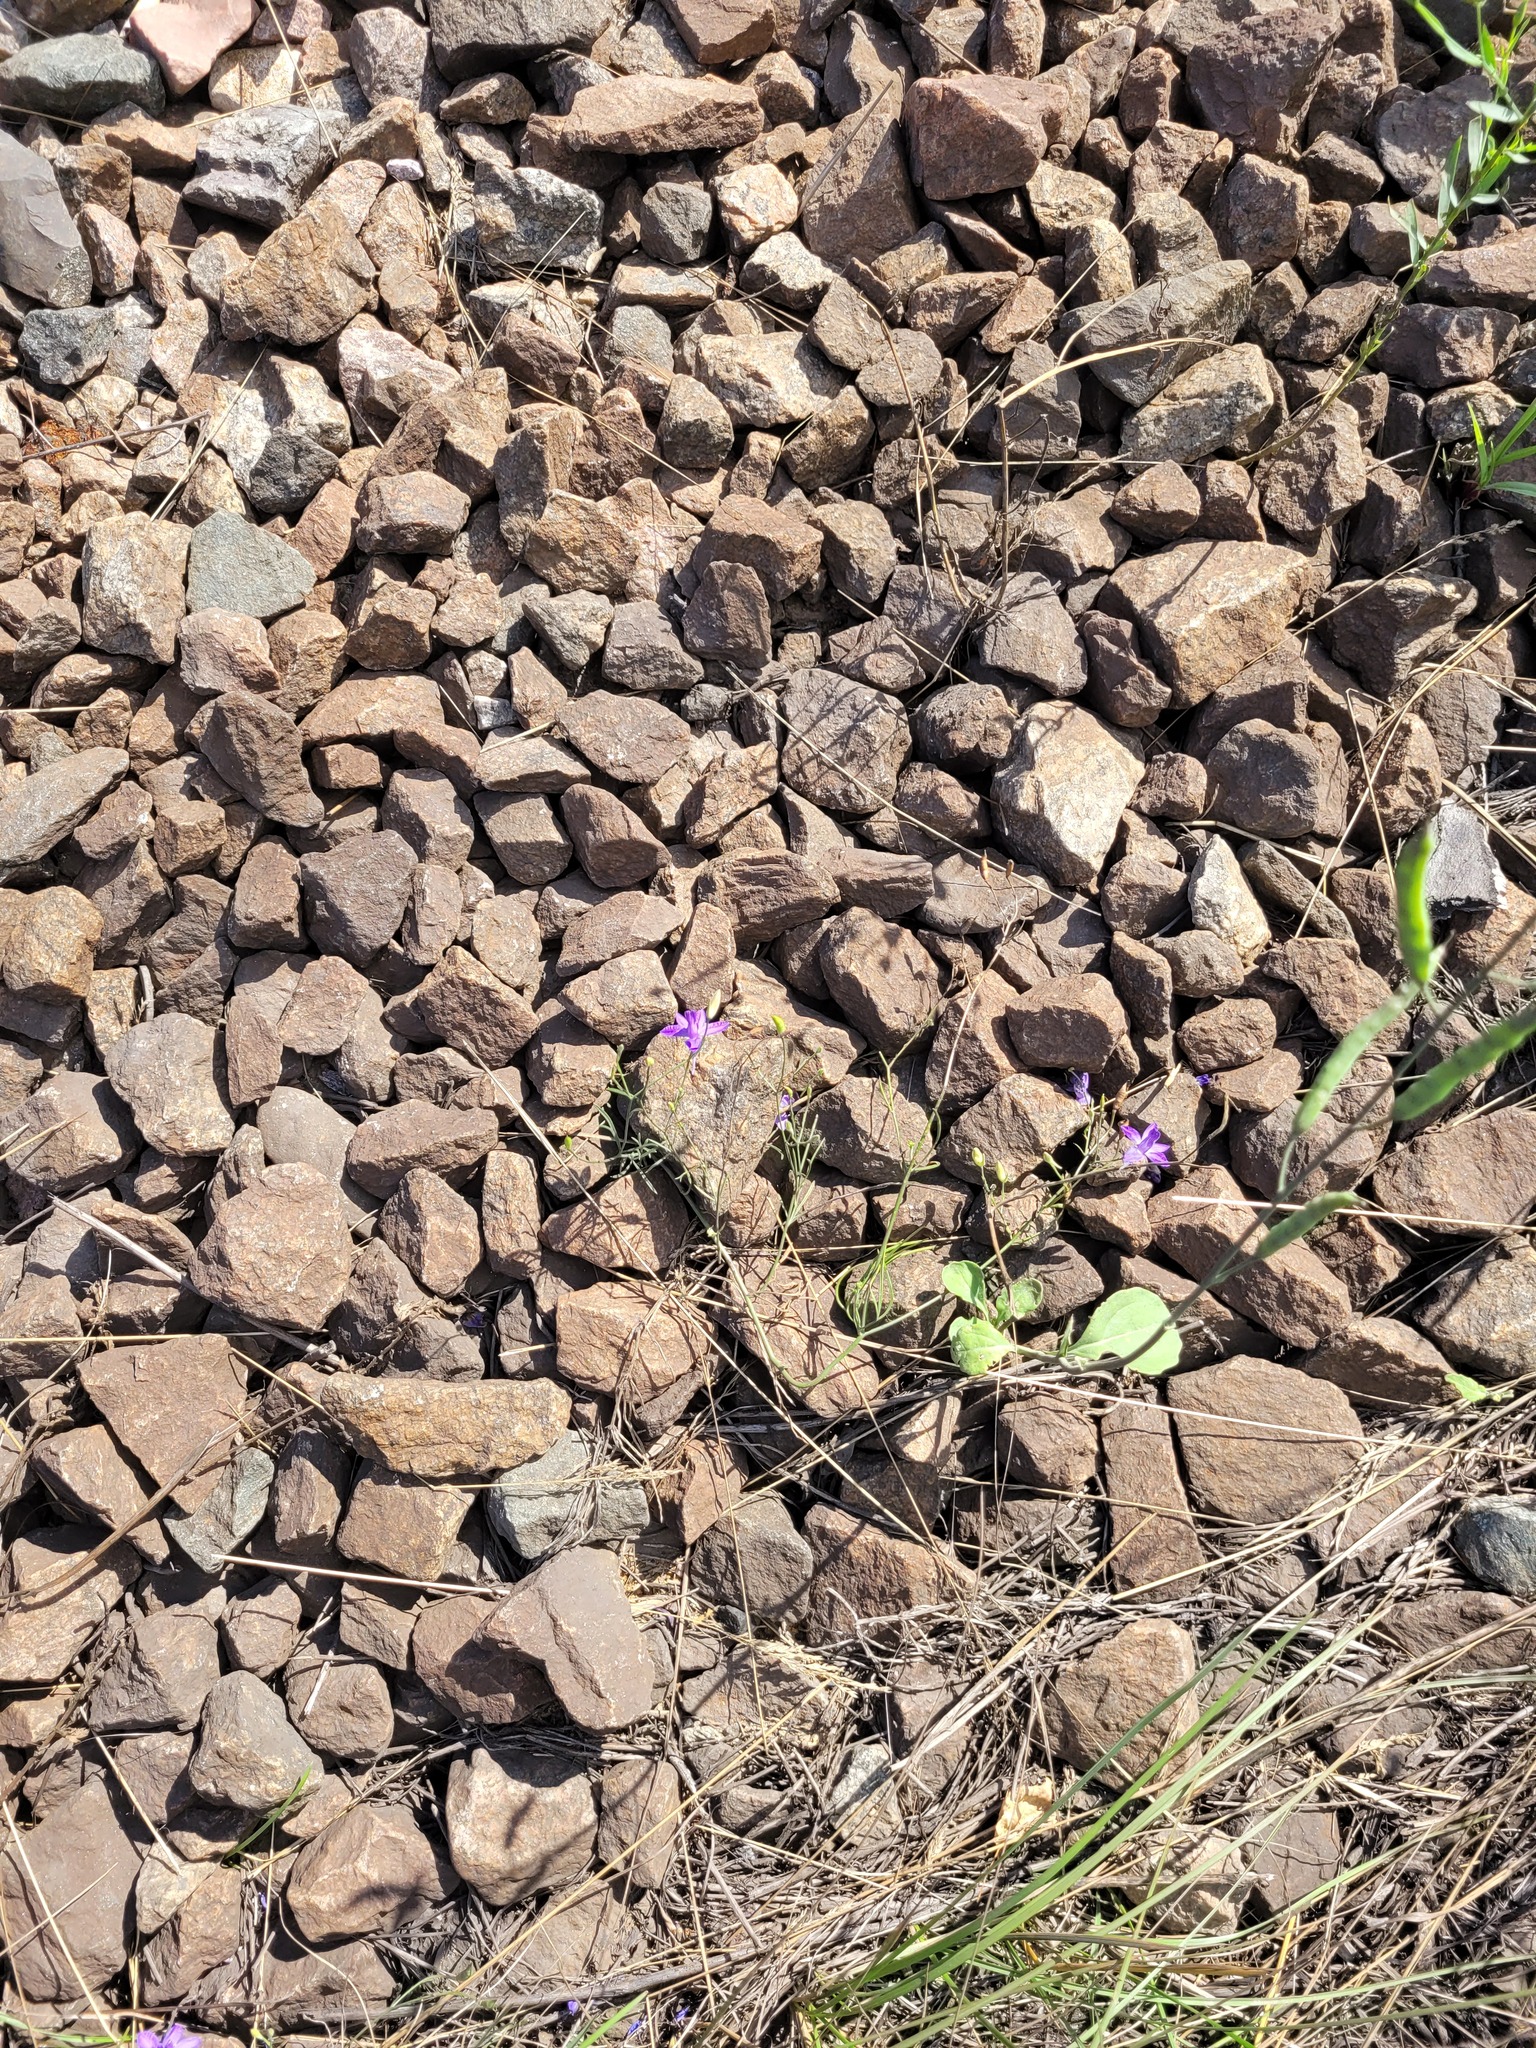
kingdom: Plantae
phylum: Tracheophyta
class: Magnoliopsida
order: Ranunculales
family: Ranunculaceae
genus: Delphinium
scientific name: Delphinium consolida
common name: Branching larkspur
